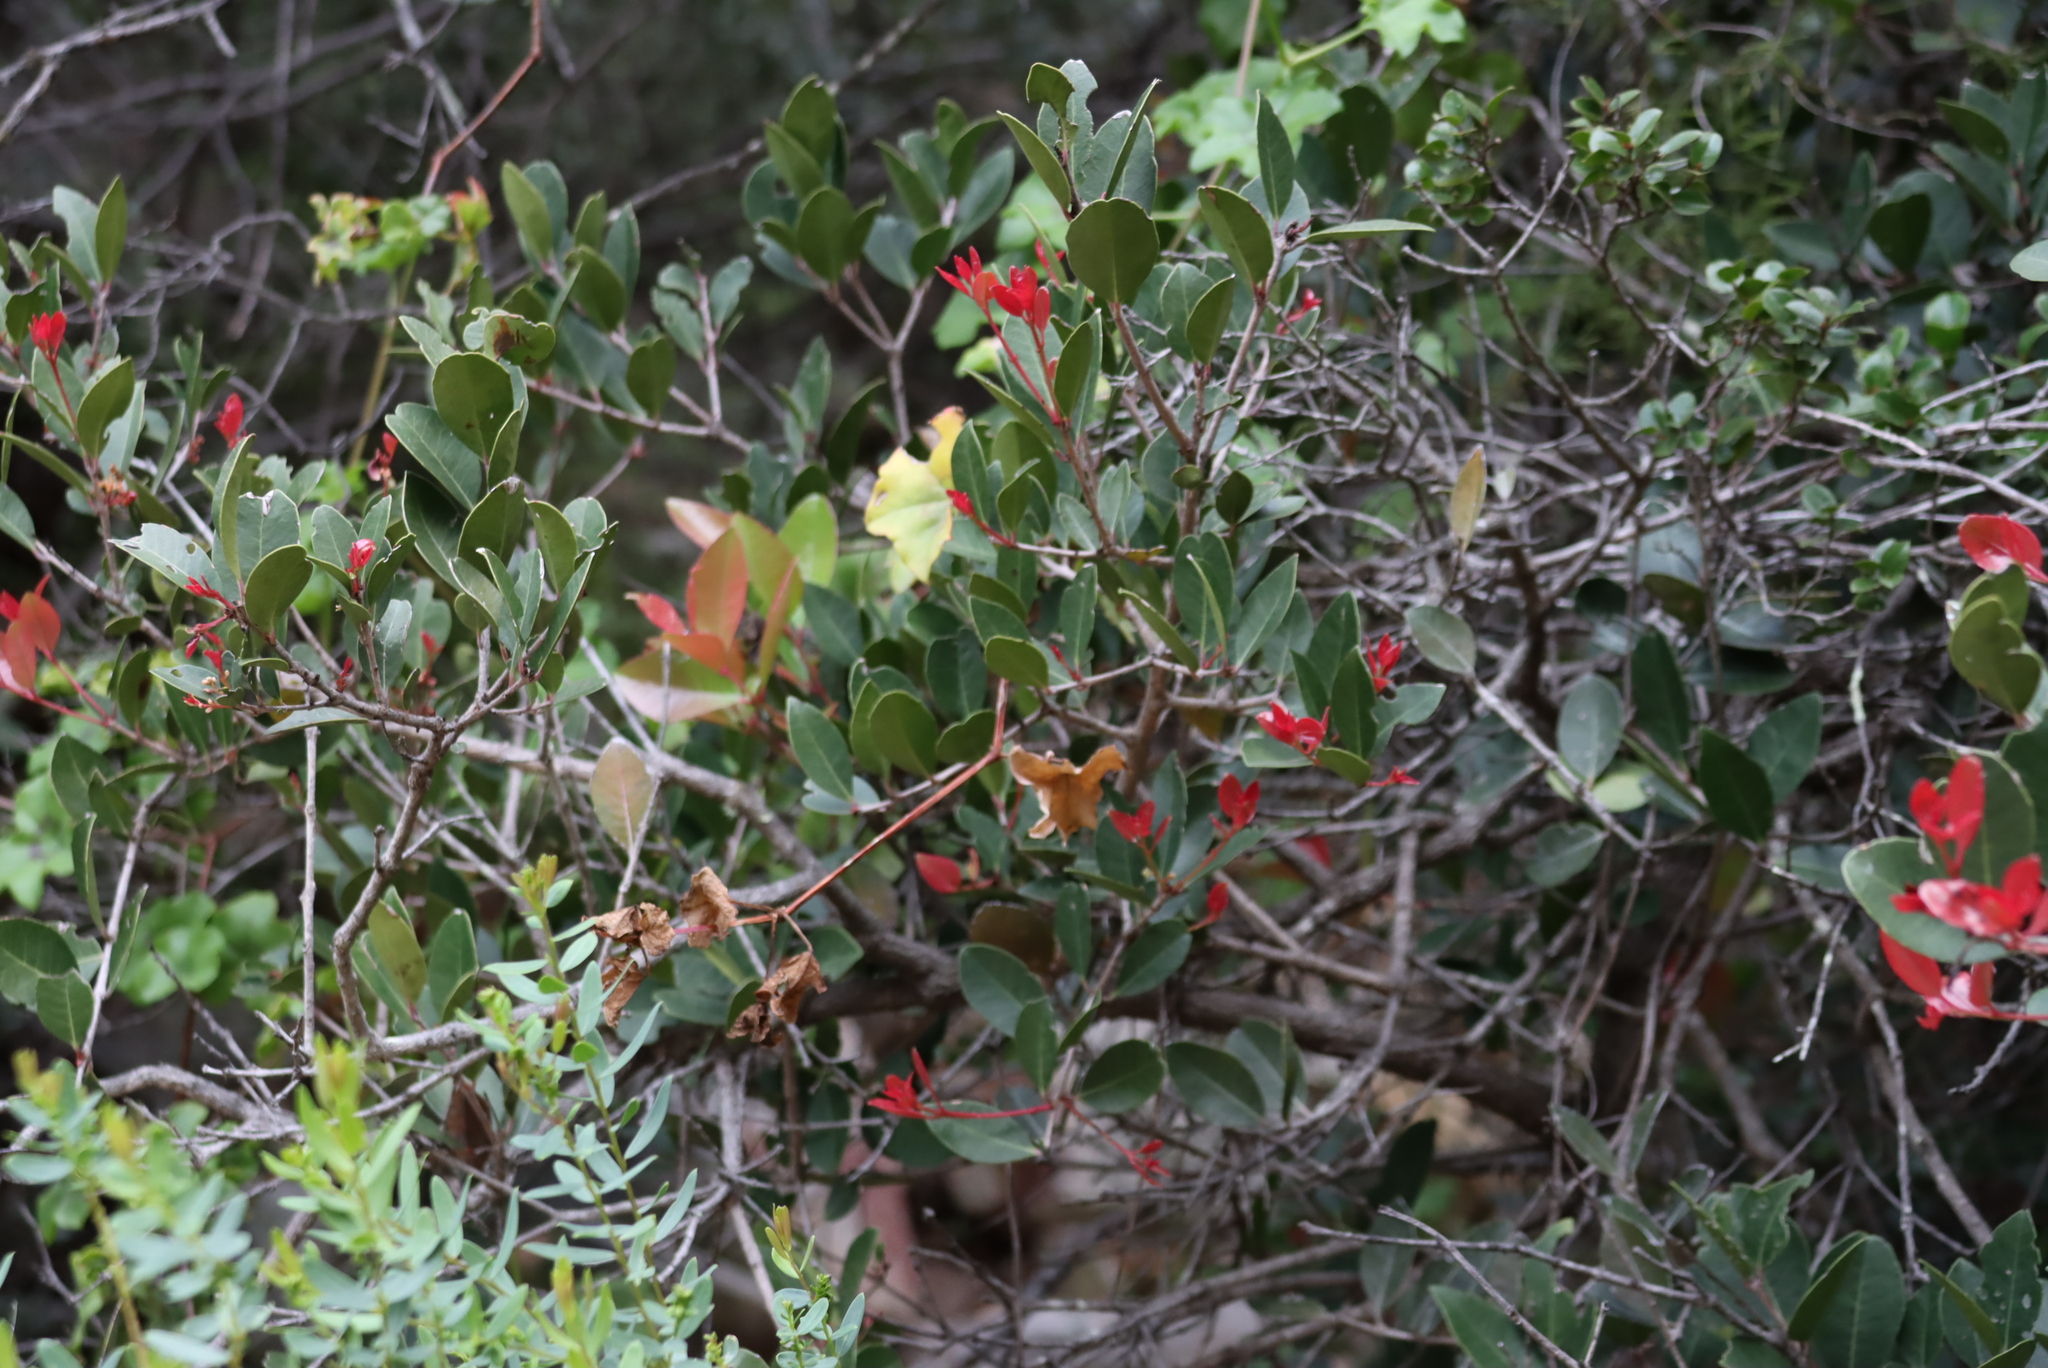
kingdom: Plantae
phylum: Tracheophyta
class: Magnoliopsida
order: Celastrales
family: Celastraceae
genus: Lauridia
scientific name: Lauridia reticulata
